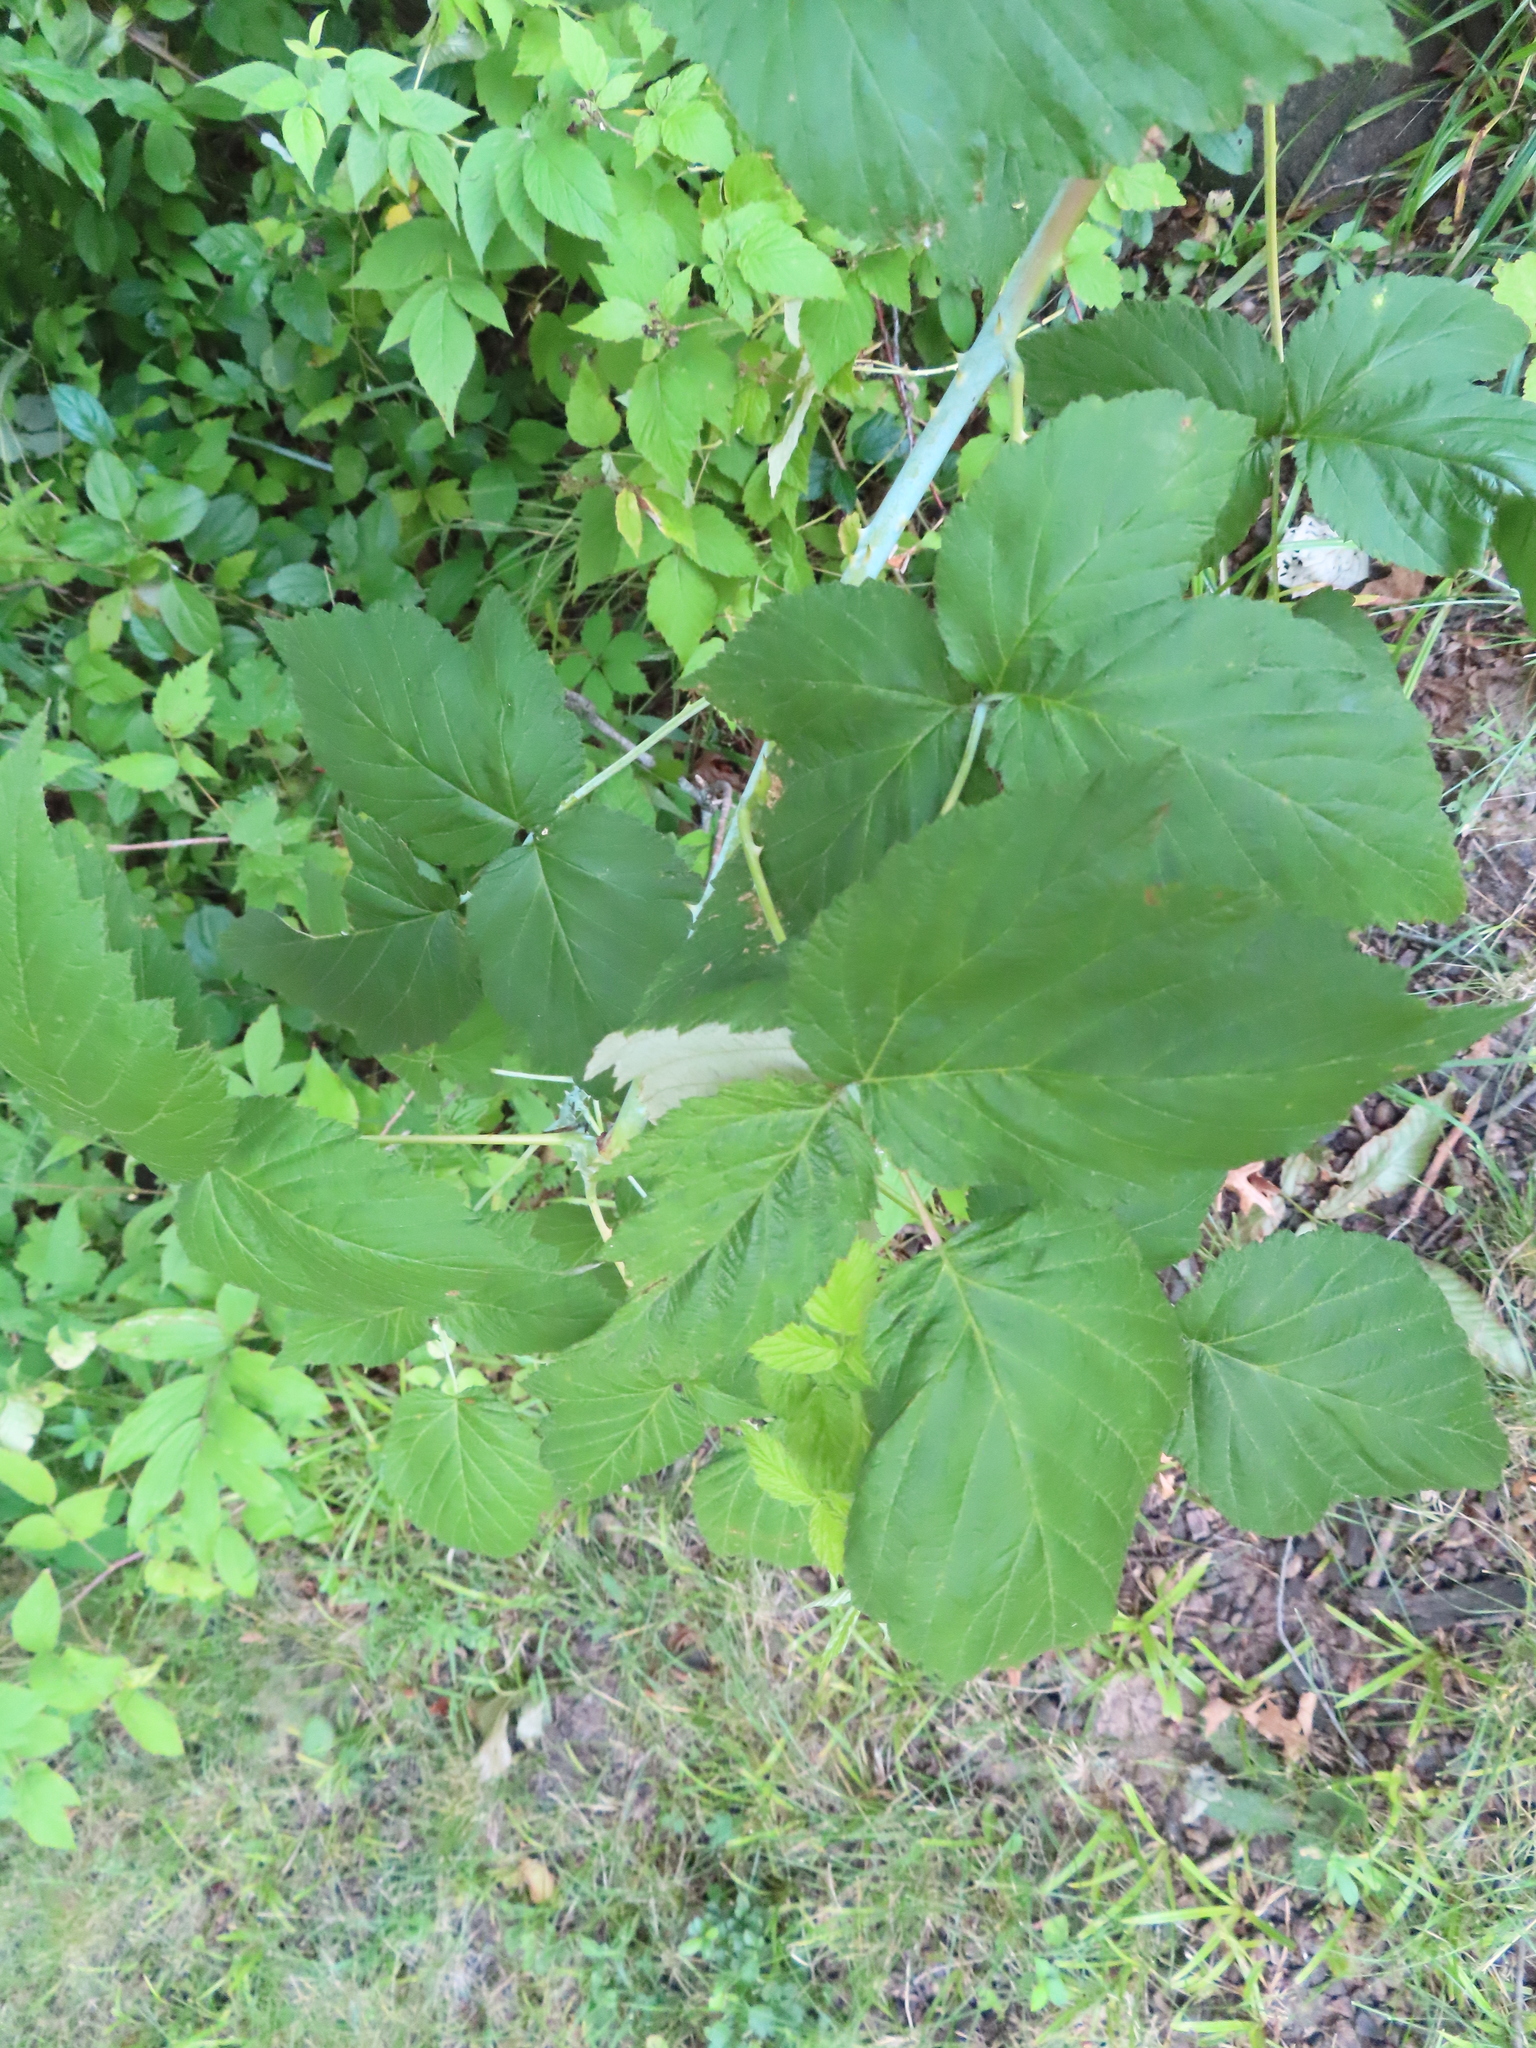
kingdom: Plantae
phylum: Tracheophyta
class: Magnoliopsida
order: Rosales
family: Rosaceae
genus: Rubus
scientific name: Rubus occidentalis
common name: Black raspberry
